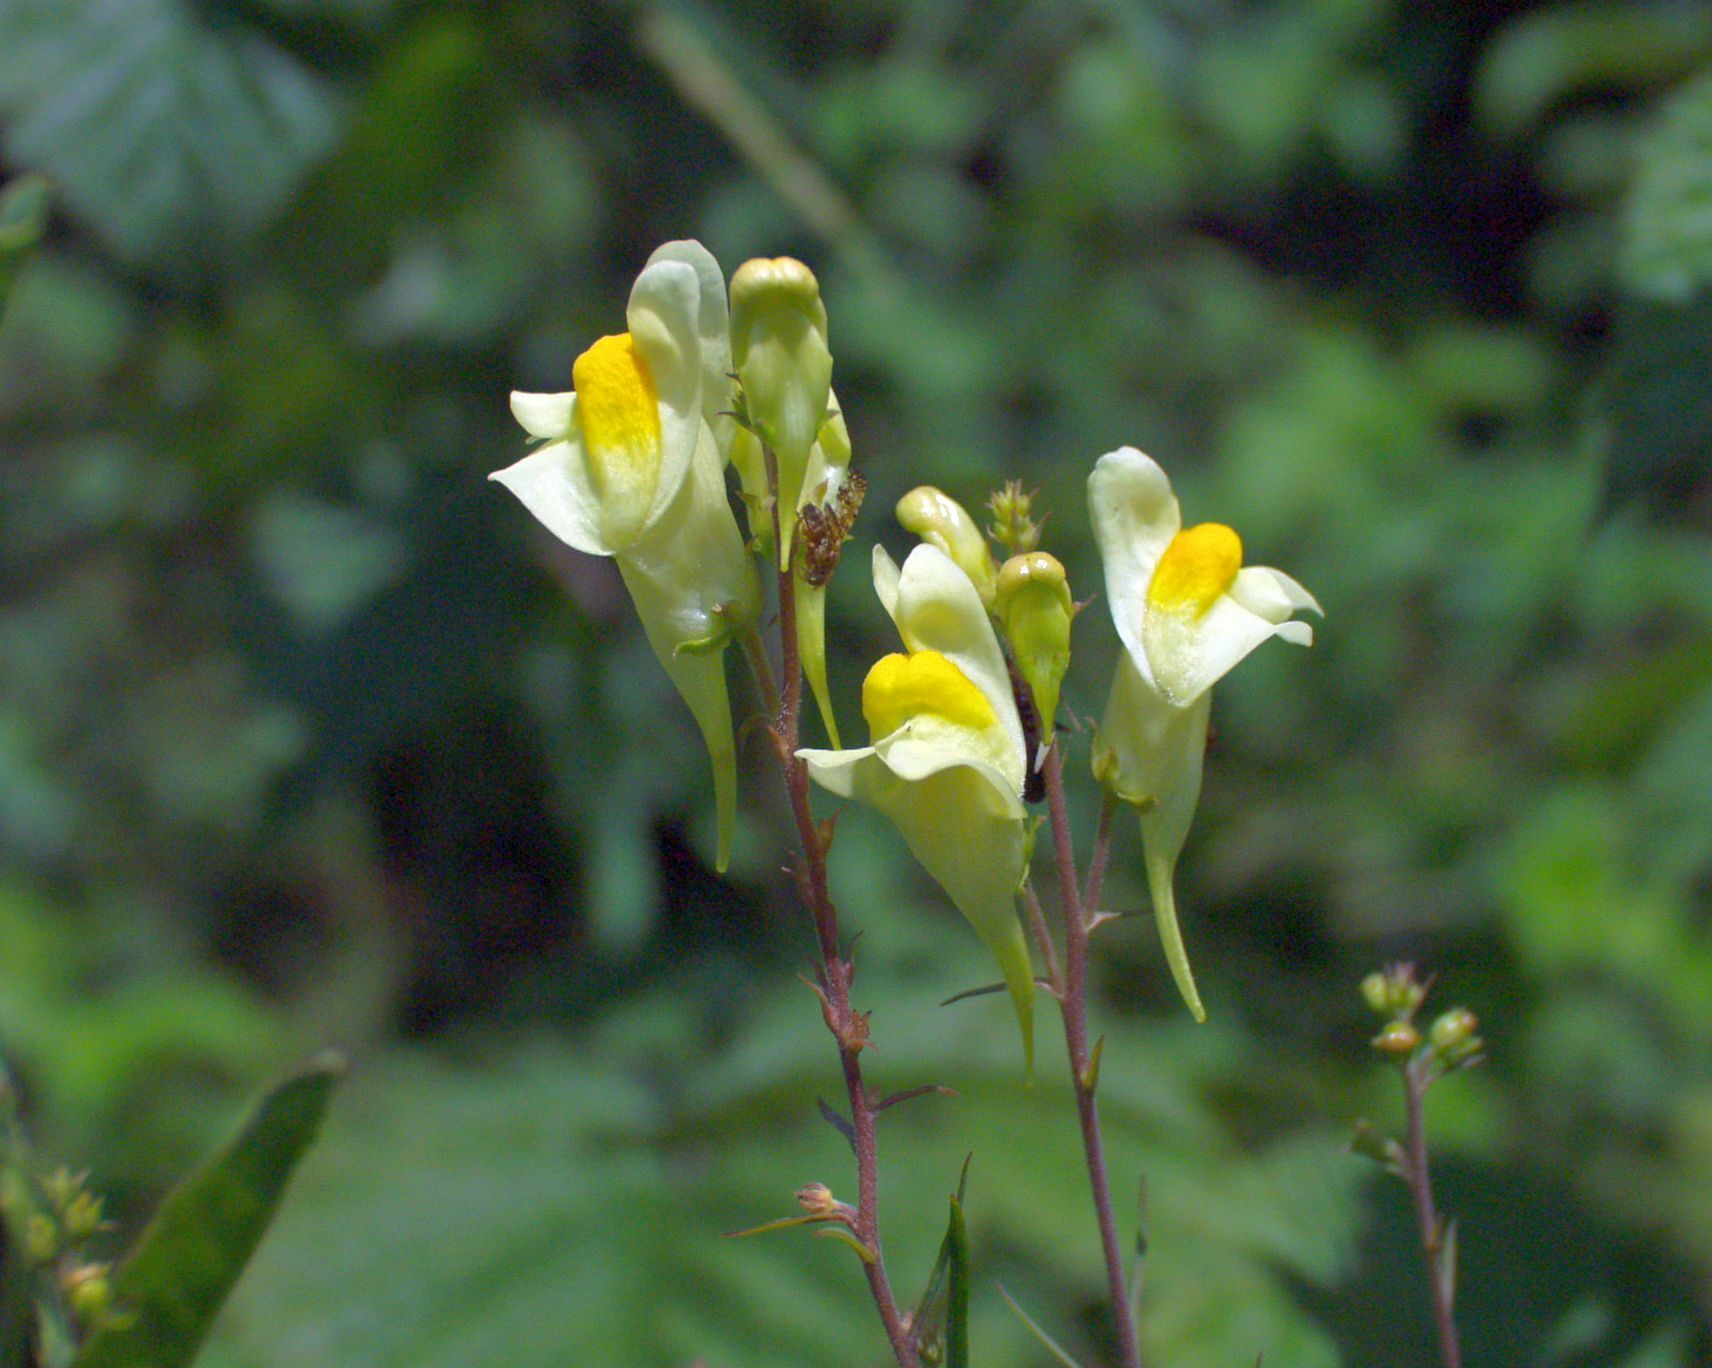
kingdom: Plantae
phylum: Tracheophyta
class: Magnoliopsida
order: Lamiales
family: Plantaginaceae
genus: Linaria
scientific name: Linaria vulgaris
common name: Butter and eggs
